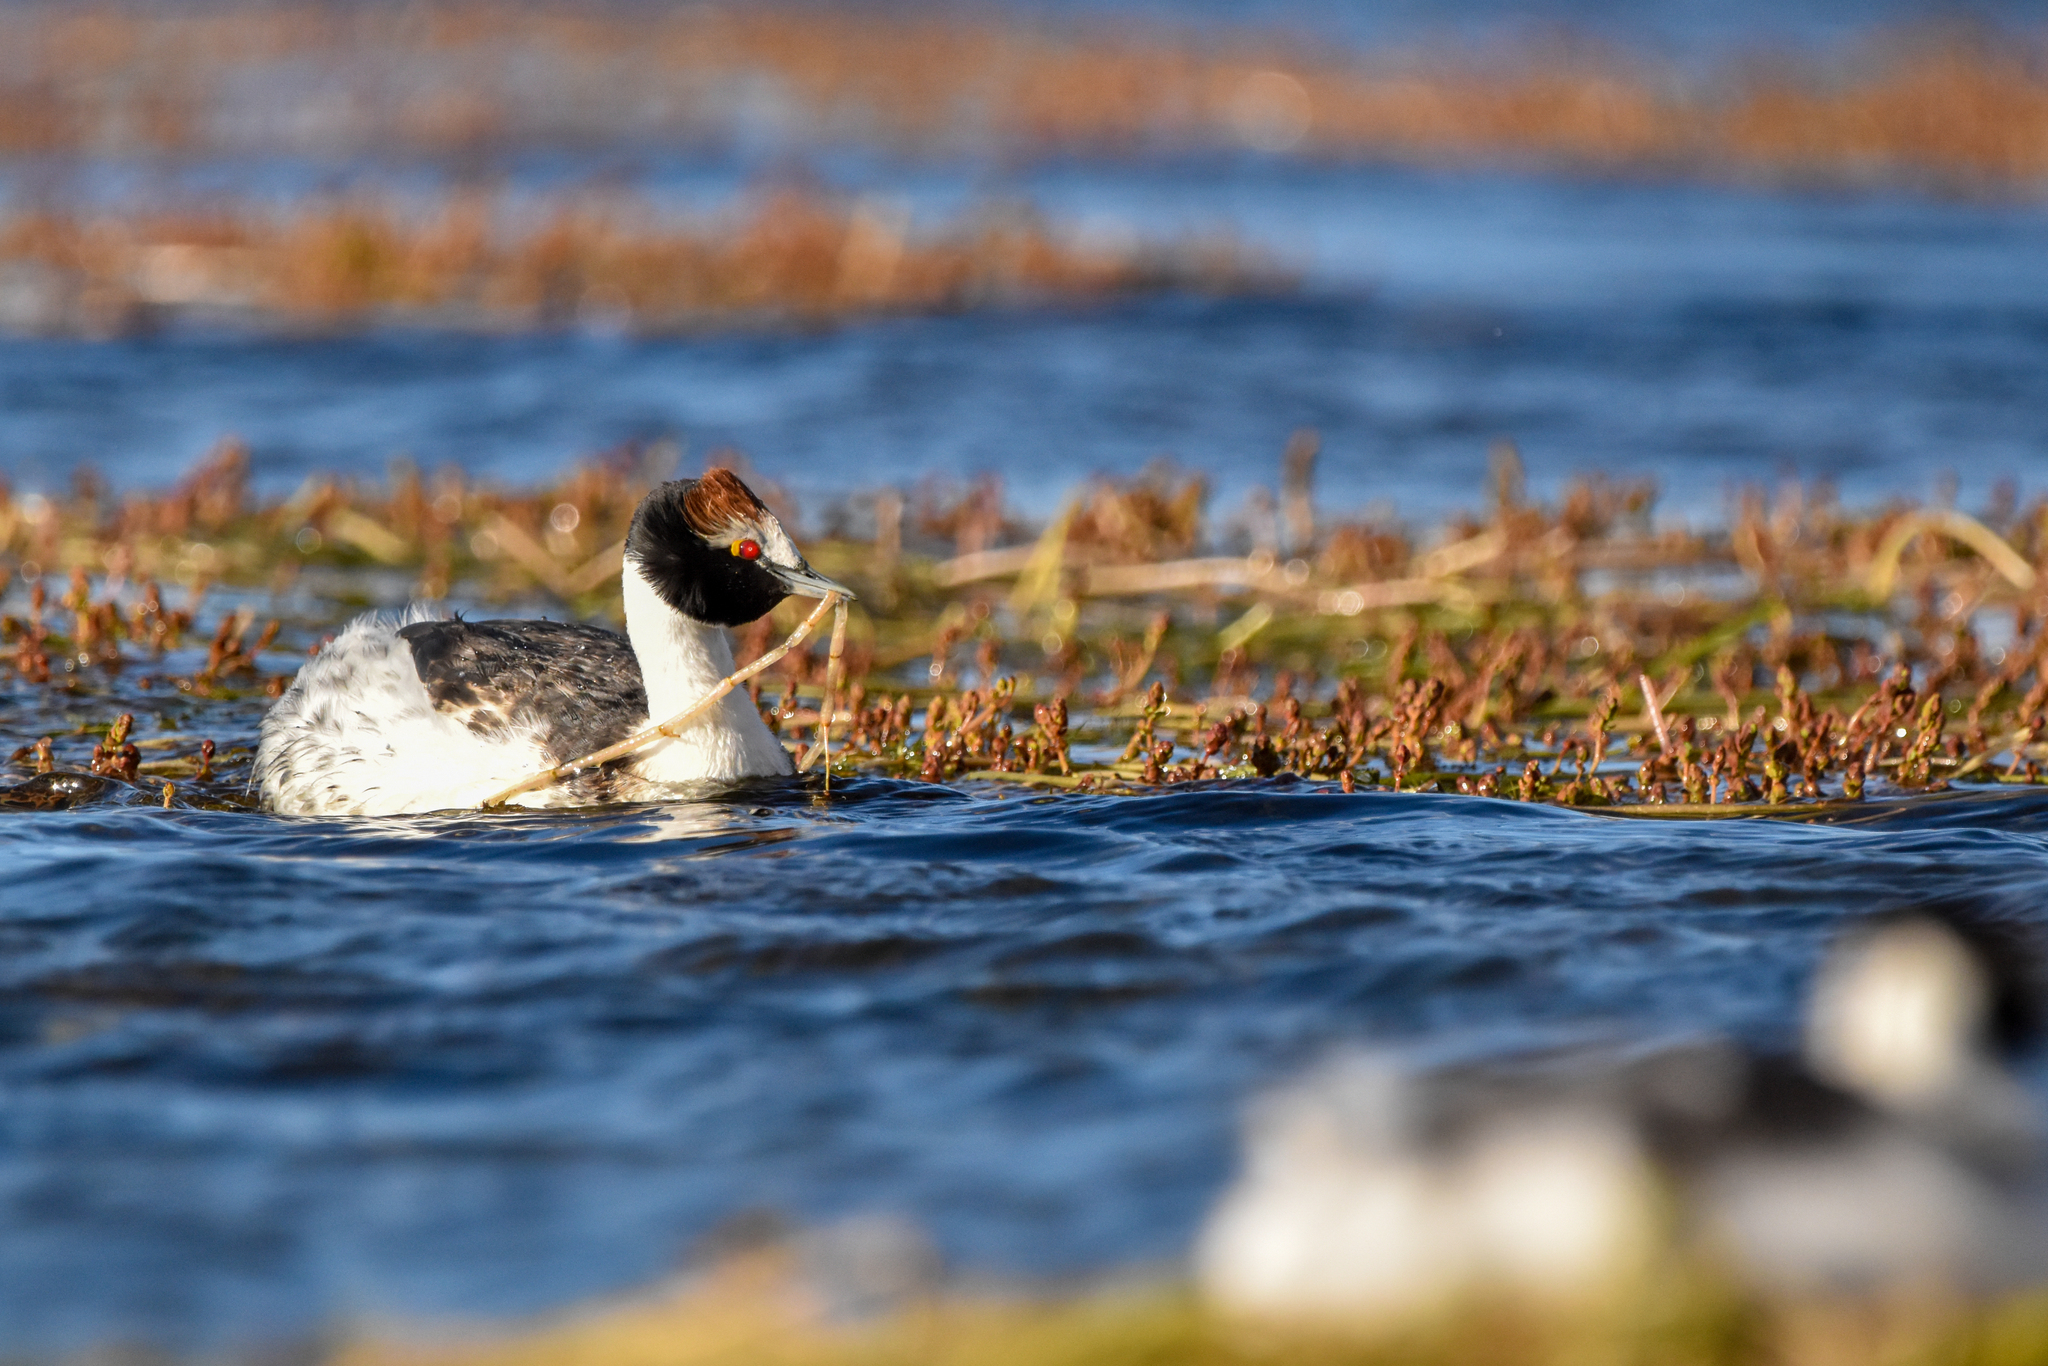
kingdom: Animalia
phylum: Chordata
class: Aves
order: Podicipediformes
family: Podicipedidae
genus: Podiceps
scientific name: Podiceps gallardoi
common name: Hooded grebe
